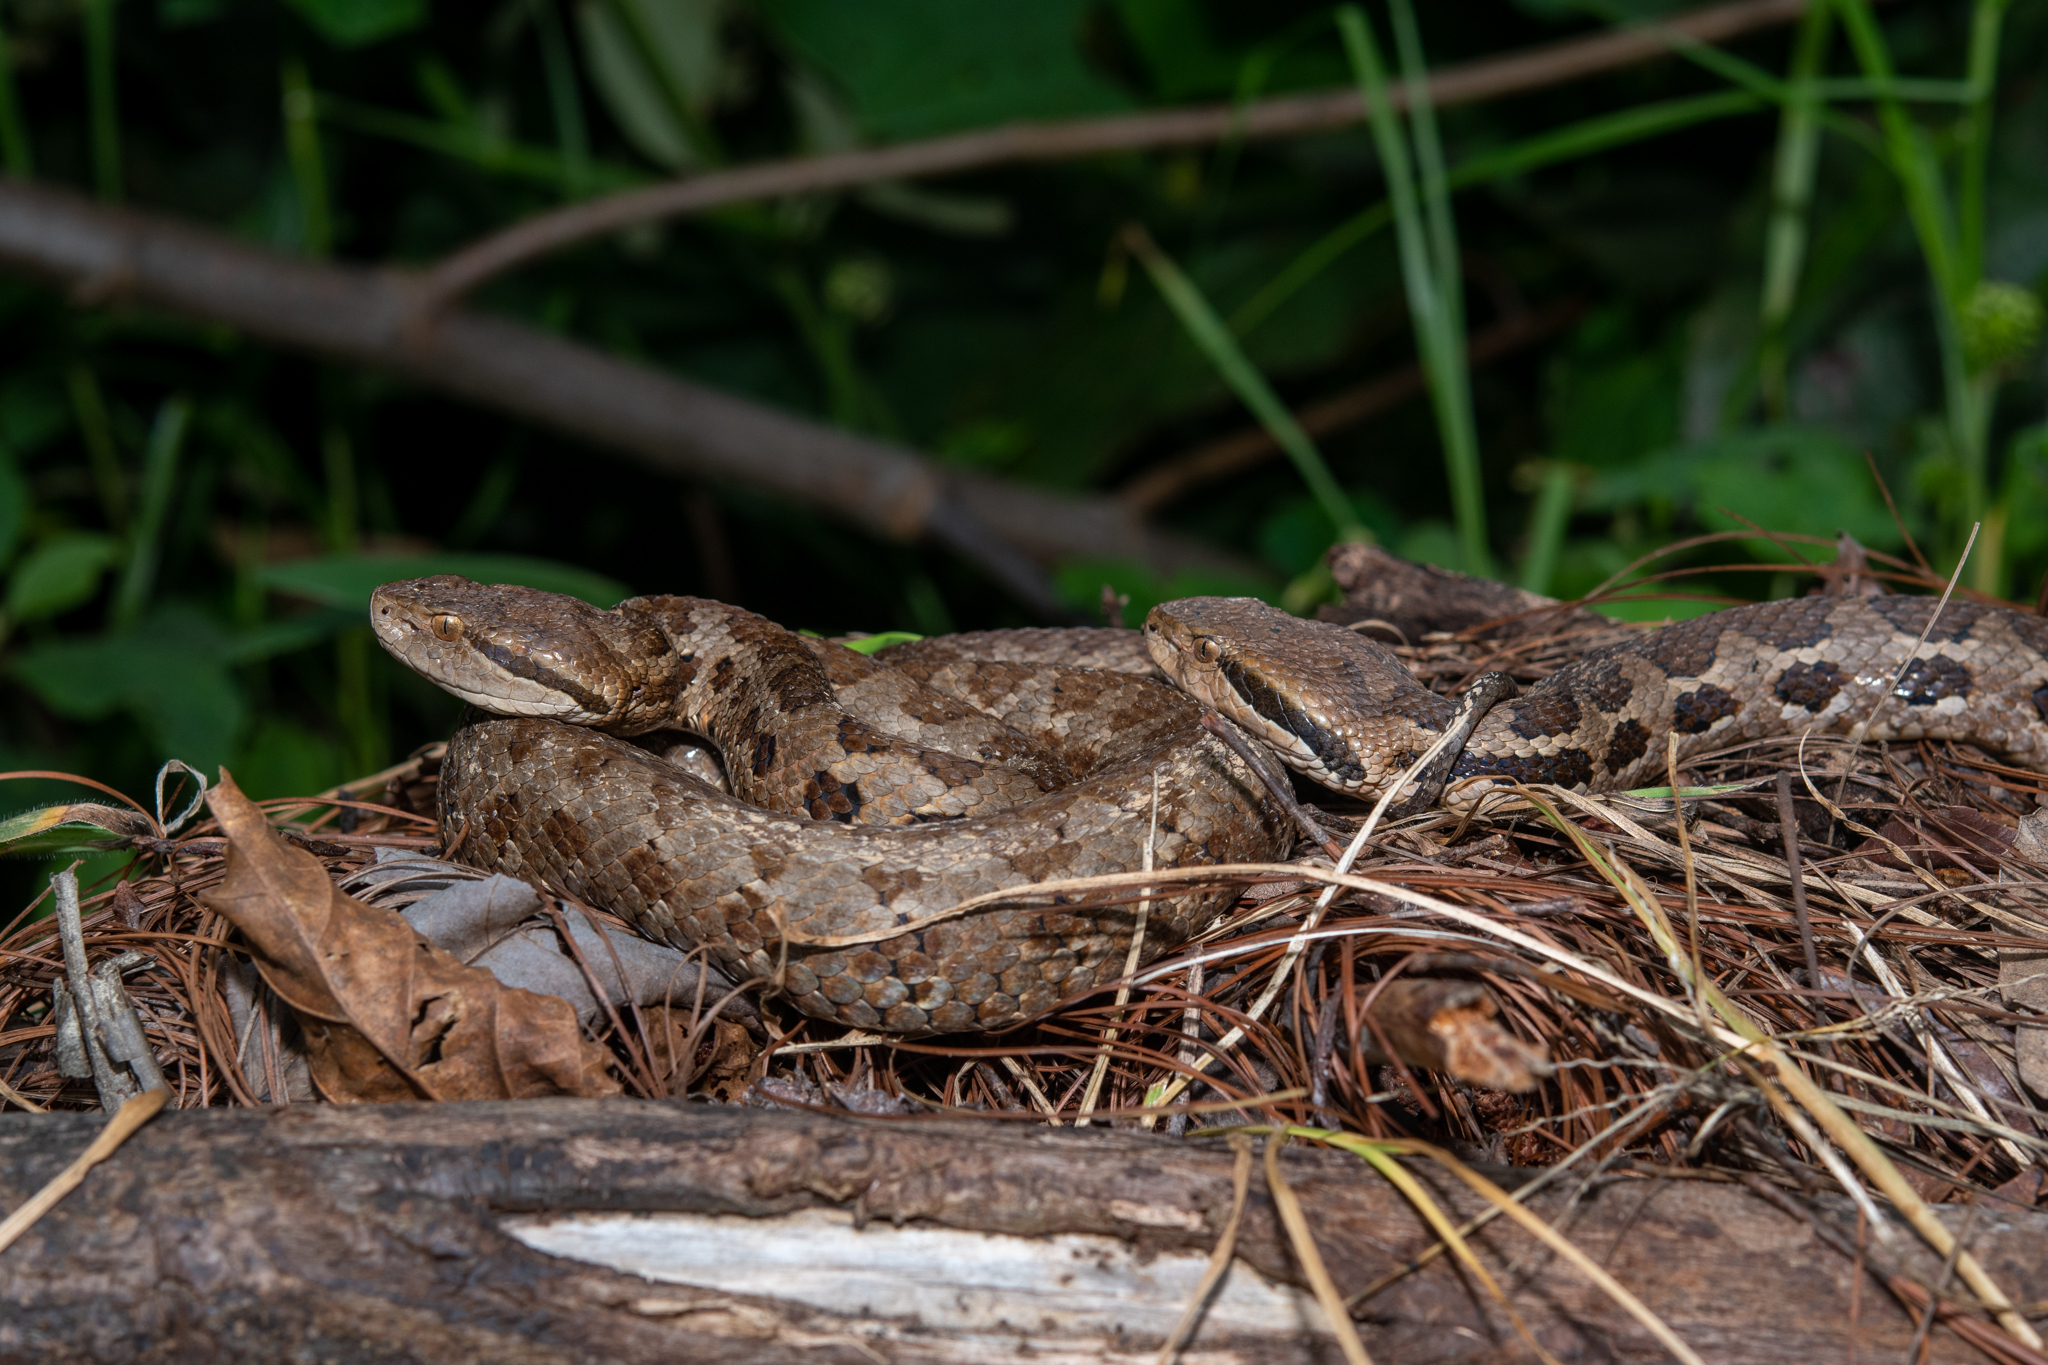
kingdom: Animalia
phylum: Chordata
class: Squamata
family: Viperidae
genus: Cerrophidion
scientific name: Cerrophidion wilsoni
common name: Honduras montane pitviper
